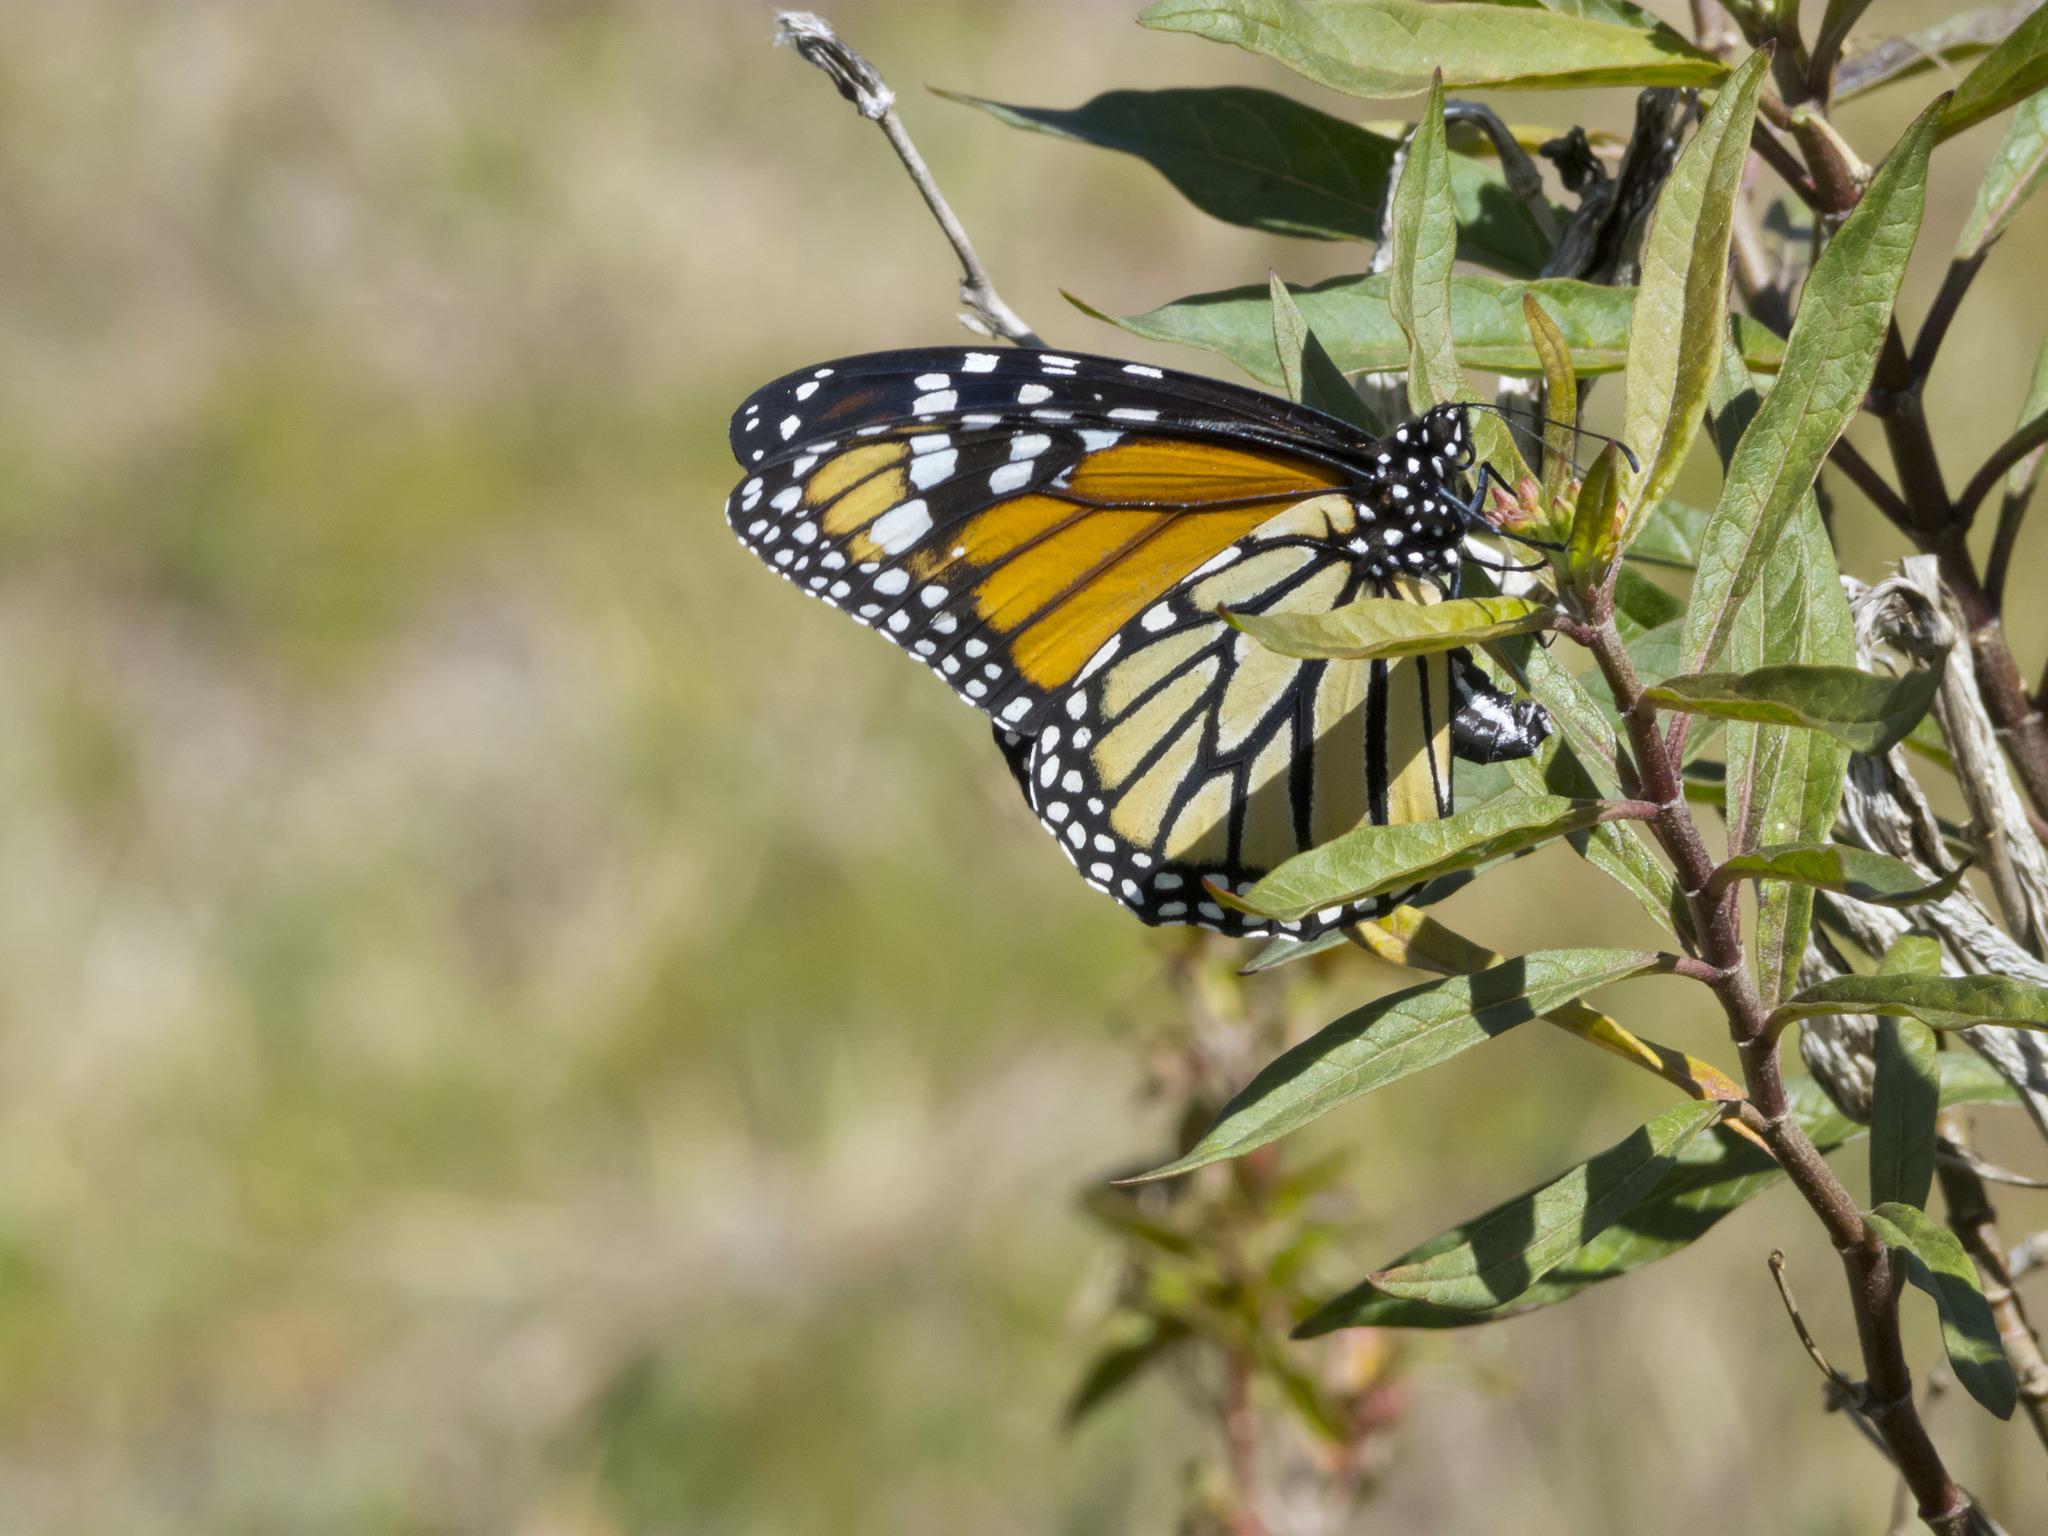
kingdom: Animalia
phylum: Arthropoda
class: Insecta
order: Lepidoptera
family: Nymphalidae
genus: Danaus
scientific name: Danaus plexippus
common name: Monarch
